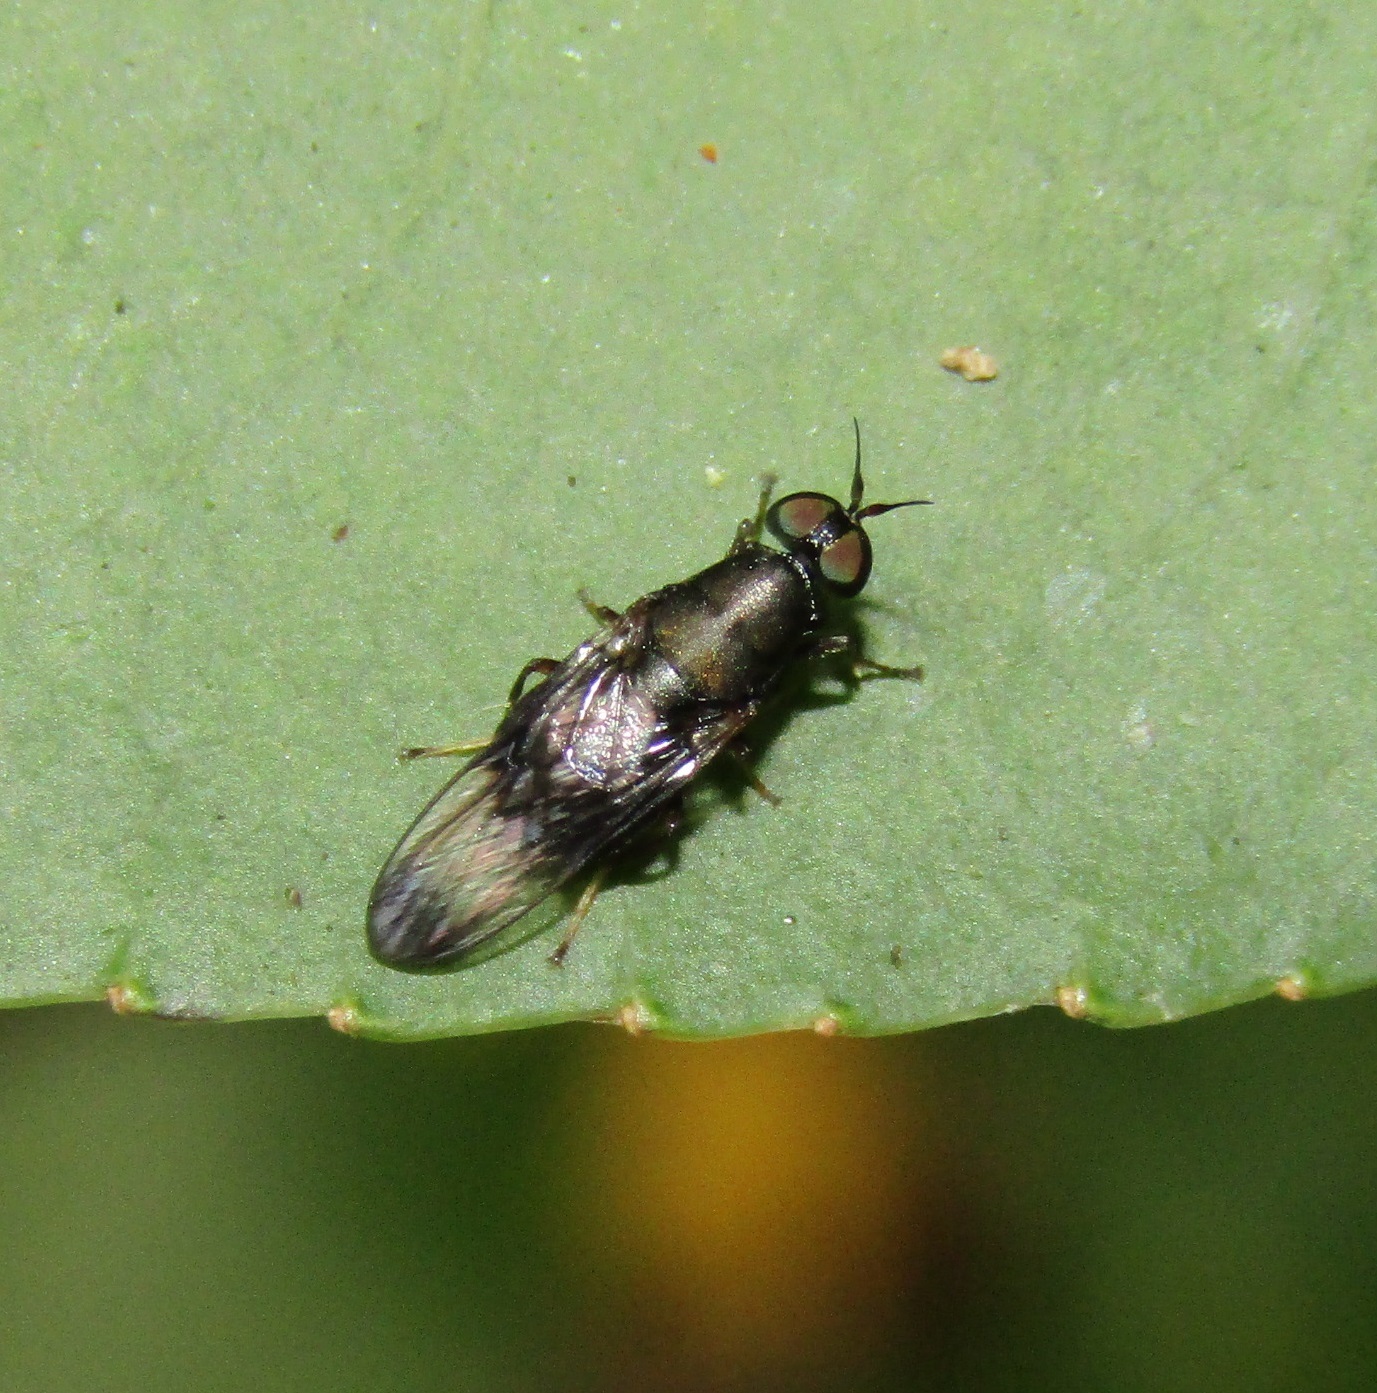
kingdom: Animalia
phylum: Arthropoda
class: Insecta
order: Diptera
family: Stratiomyidae
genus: Dysbiota
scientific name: Dysbiota peregrina
